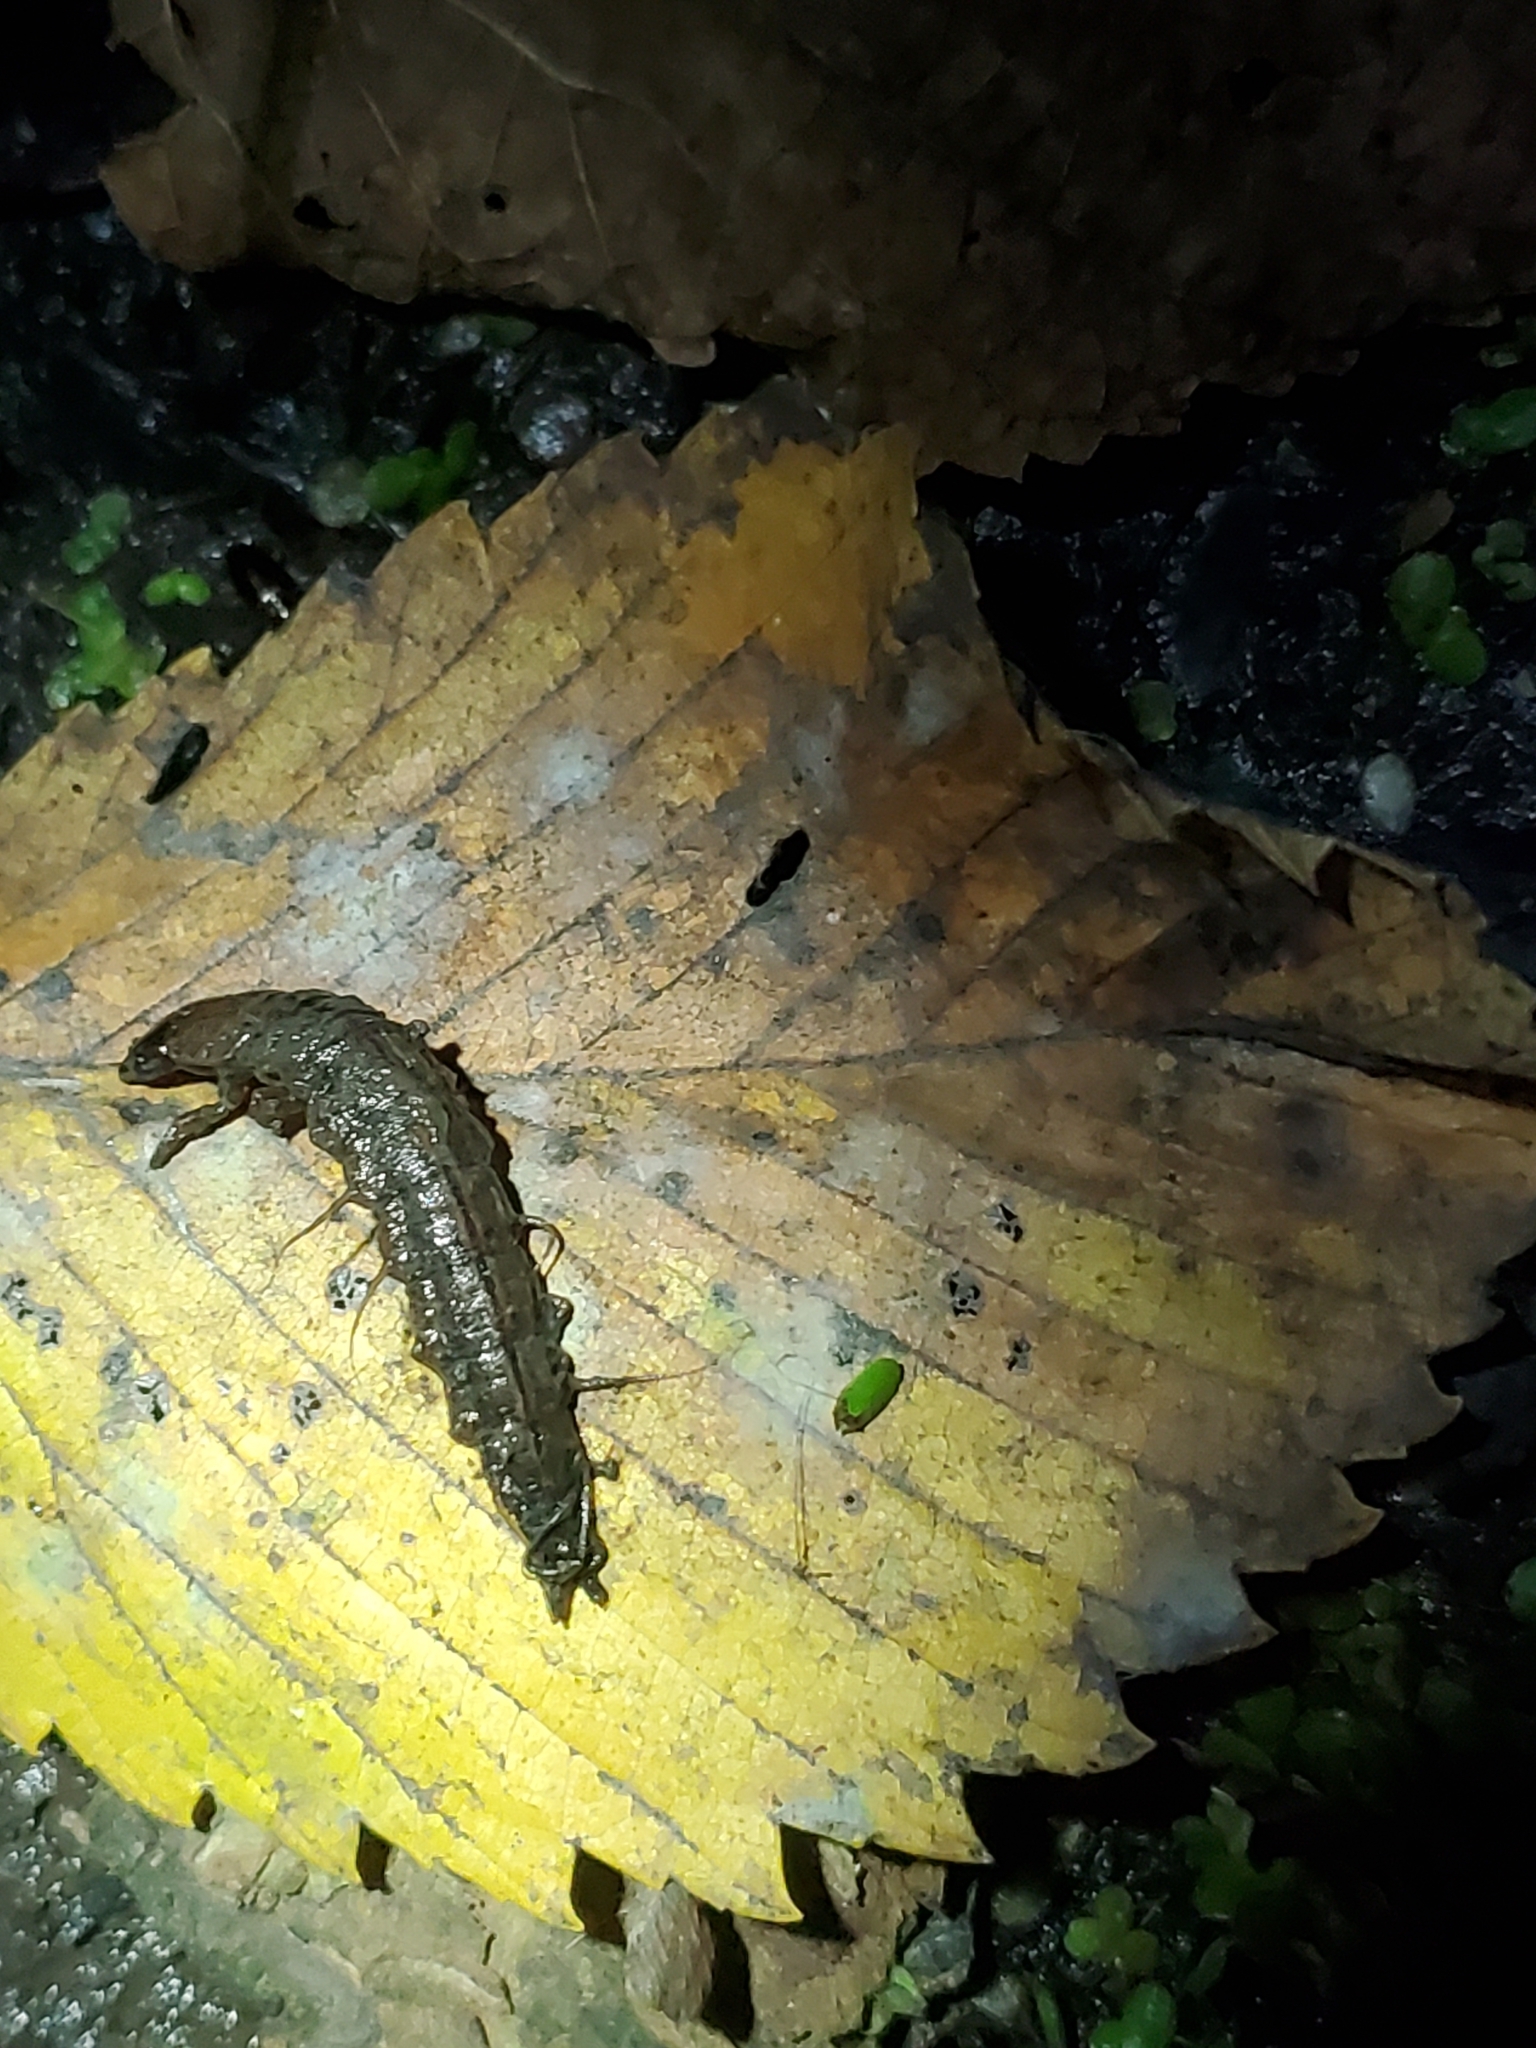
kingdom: Animalia
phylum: Arthropoda
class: Insecta
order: Megaloptera
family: Corydalidae
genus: Chauliodes
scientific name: Chauliodes rastricornis
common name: Spring fishfly
